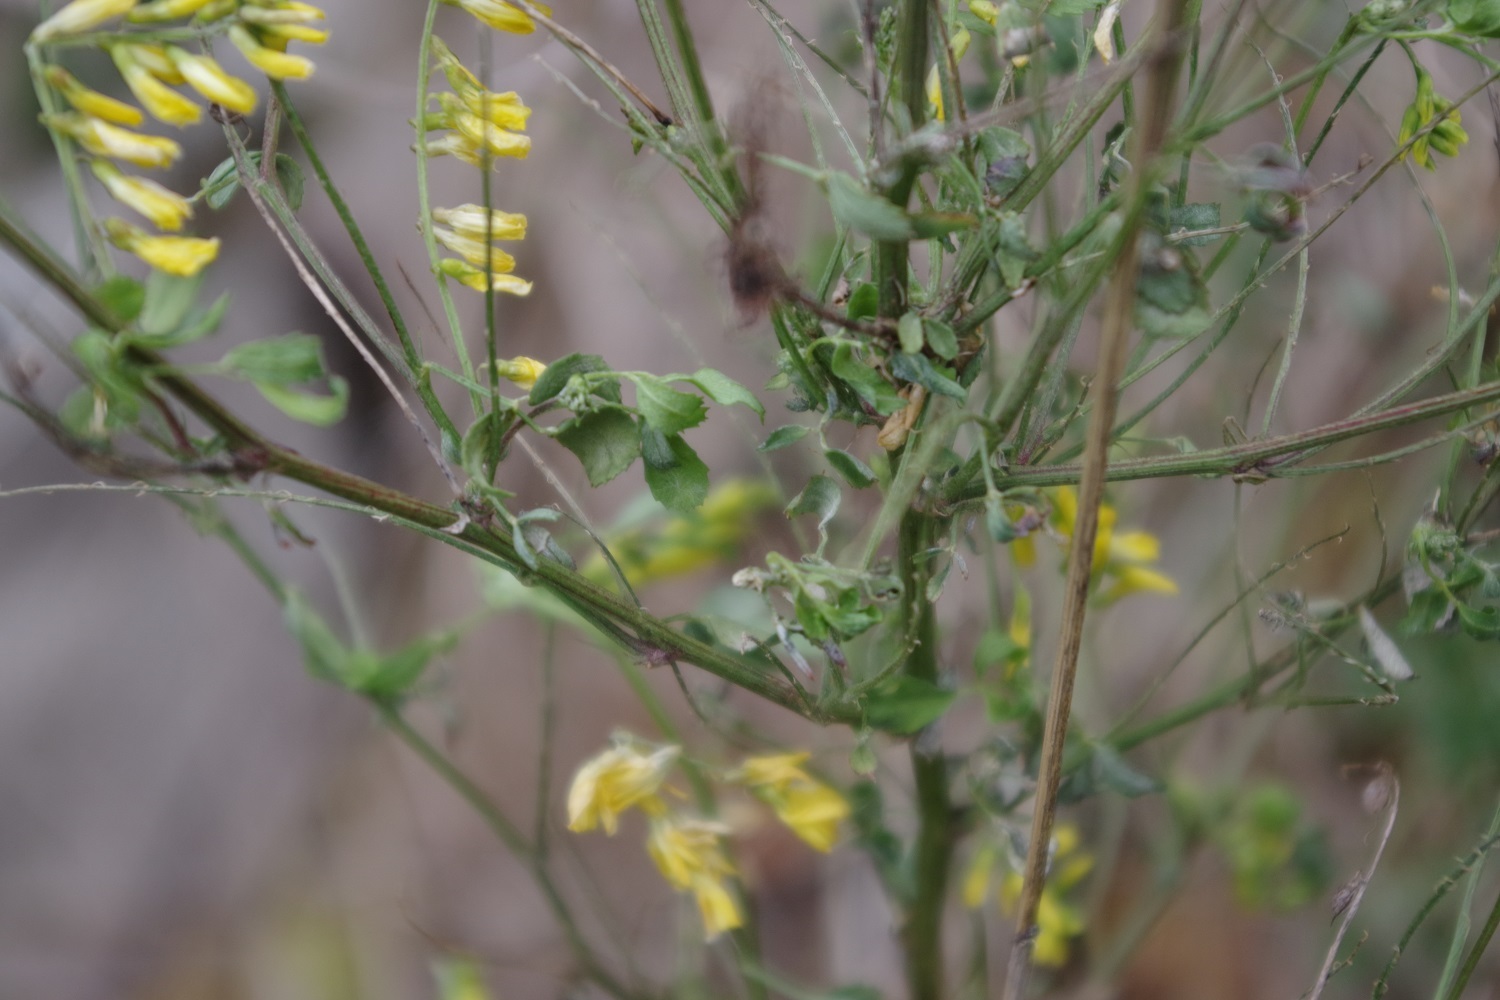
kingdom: Plantae
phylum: Tracheophyta
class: Magnoliopsida
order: Fabales
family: Fabaceae
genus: Melilotus
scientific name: Melilotus officinalis
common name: Sweetclover
